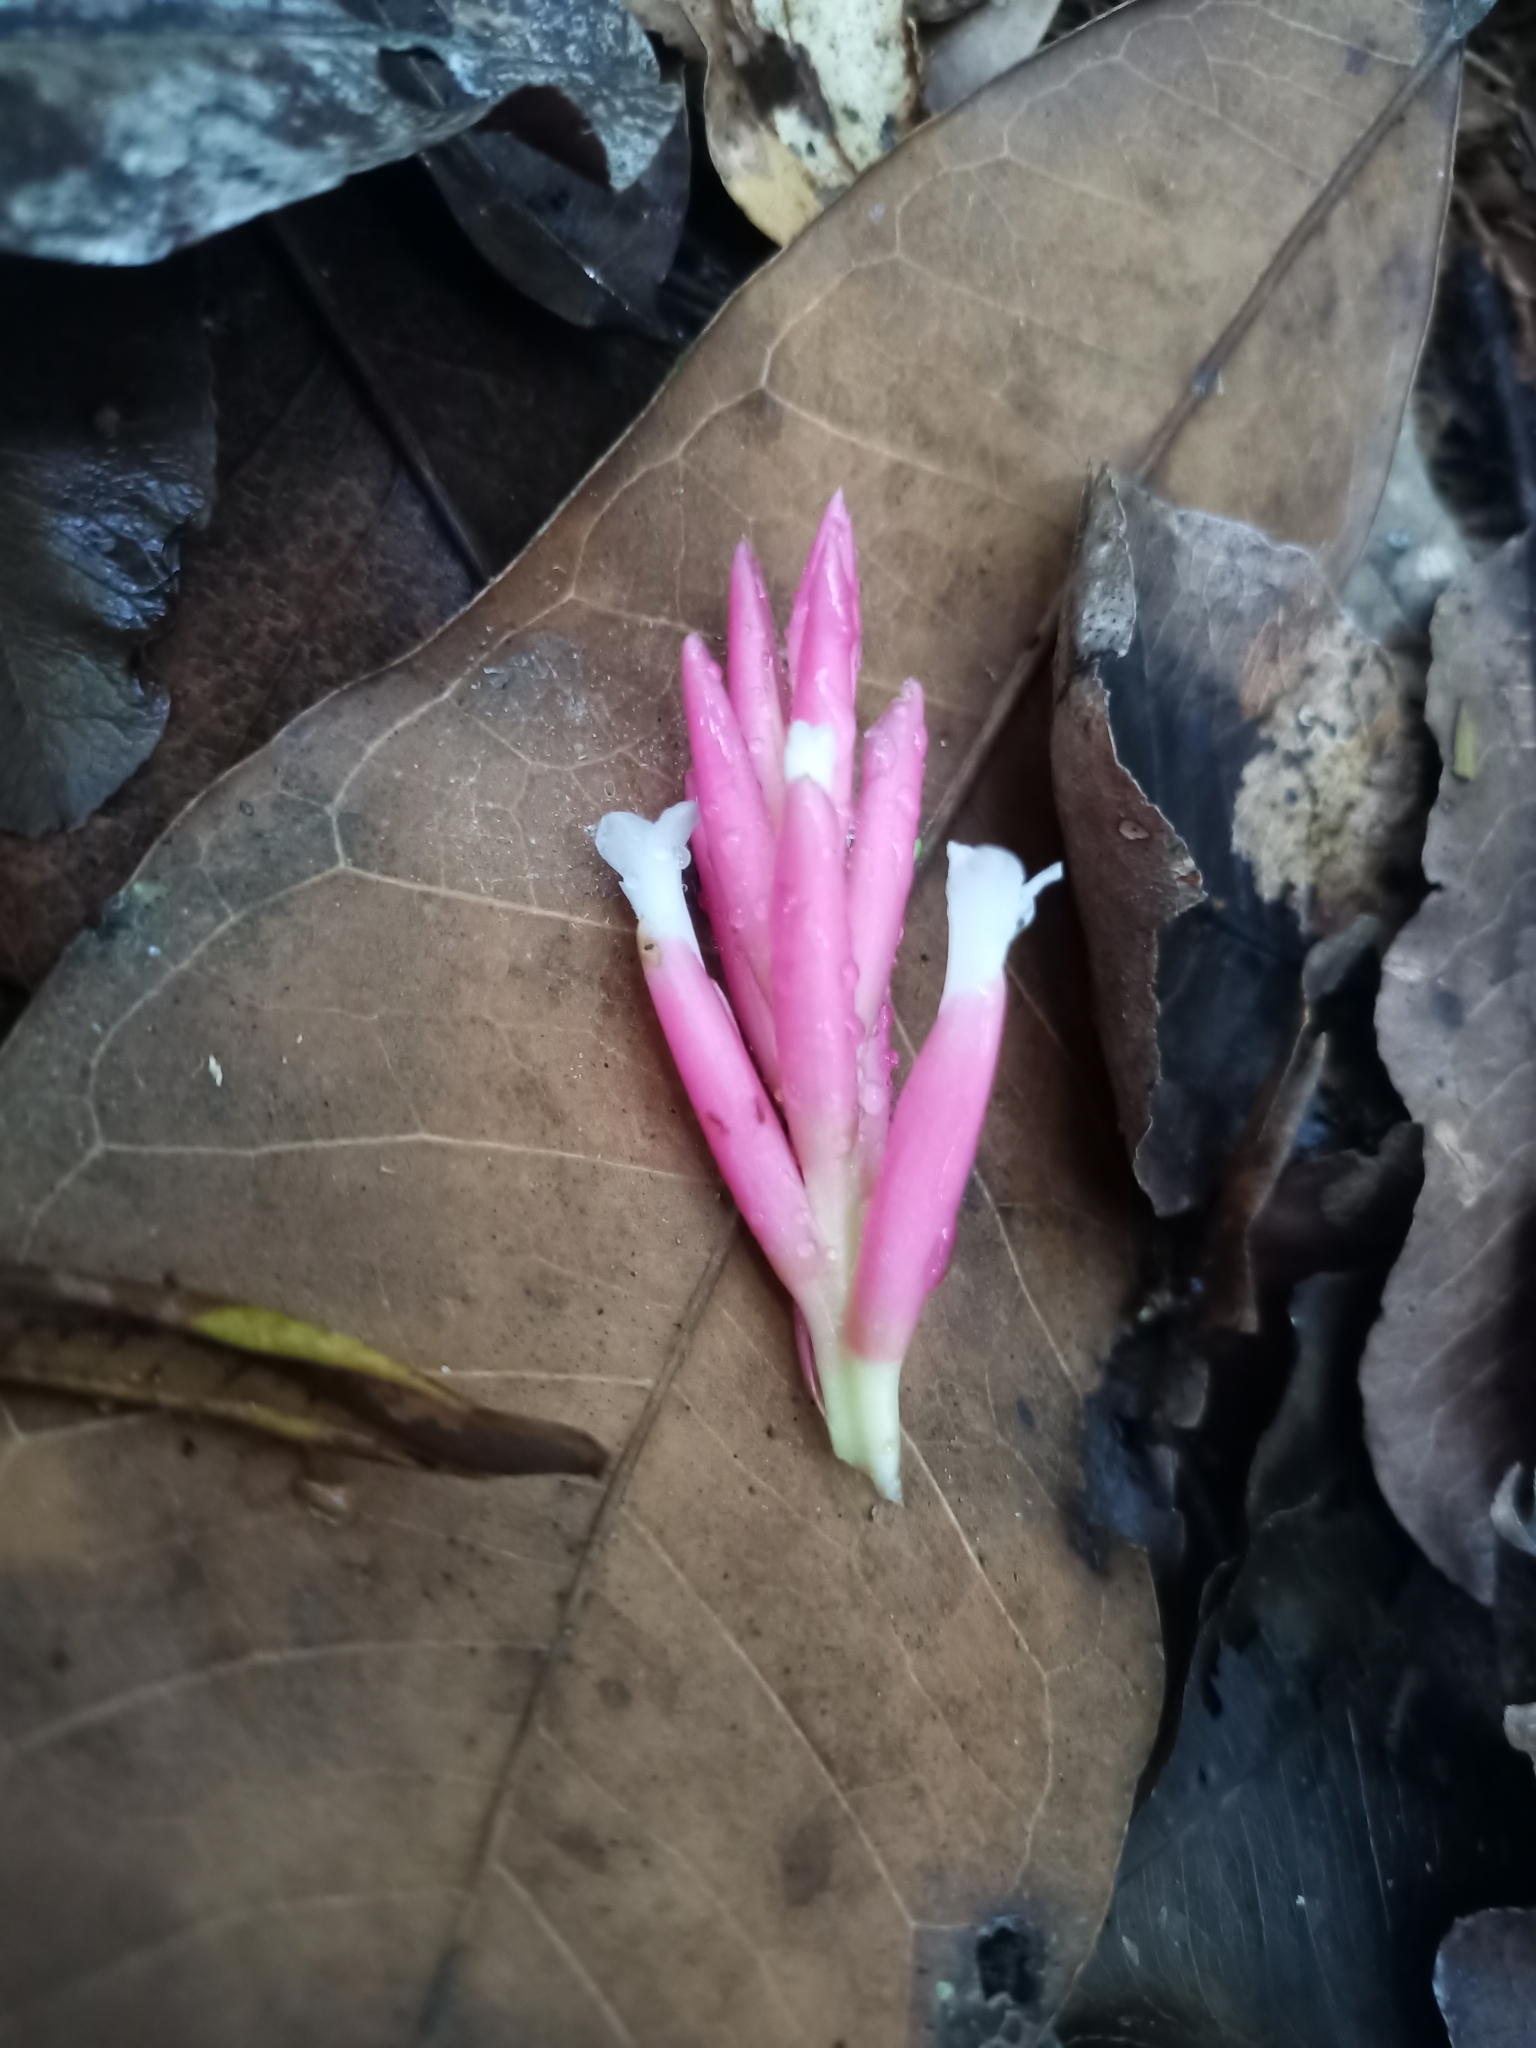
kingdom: Plantae
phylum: Tracheophyta
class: Liliopsida
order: Poales
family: Bromeliaceae
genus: Tillandsia
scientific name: Tillandsia tenuifolia
